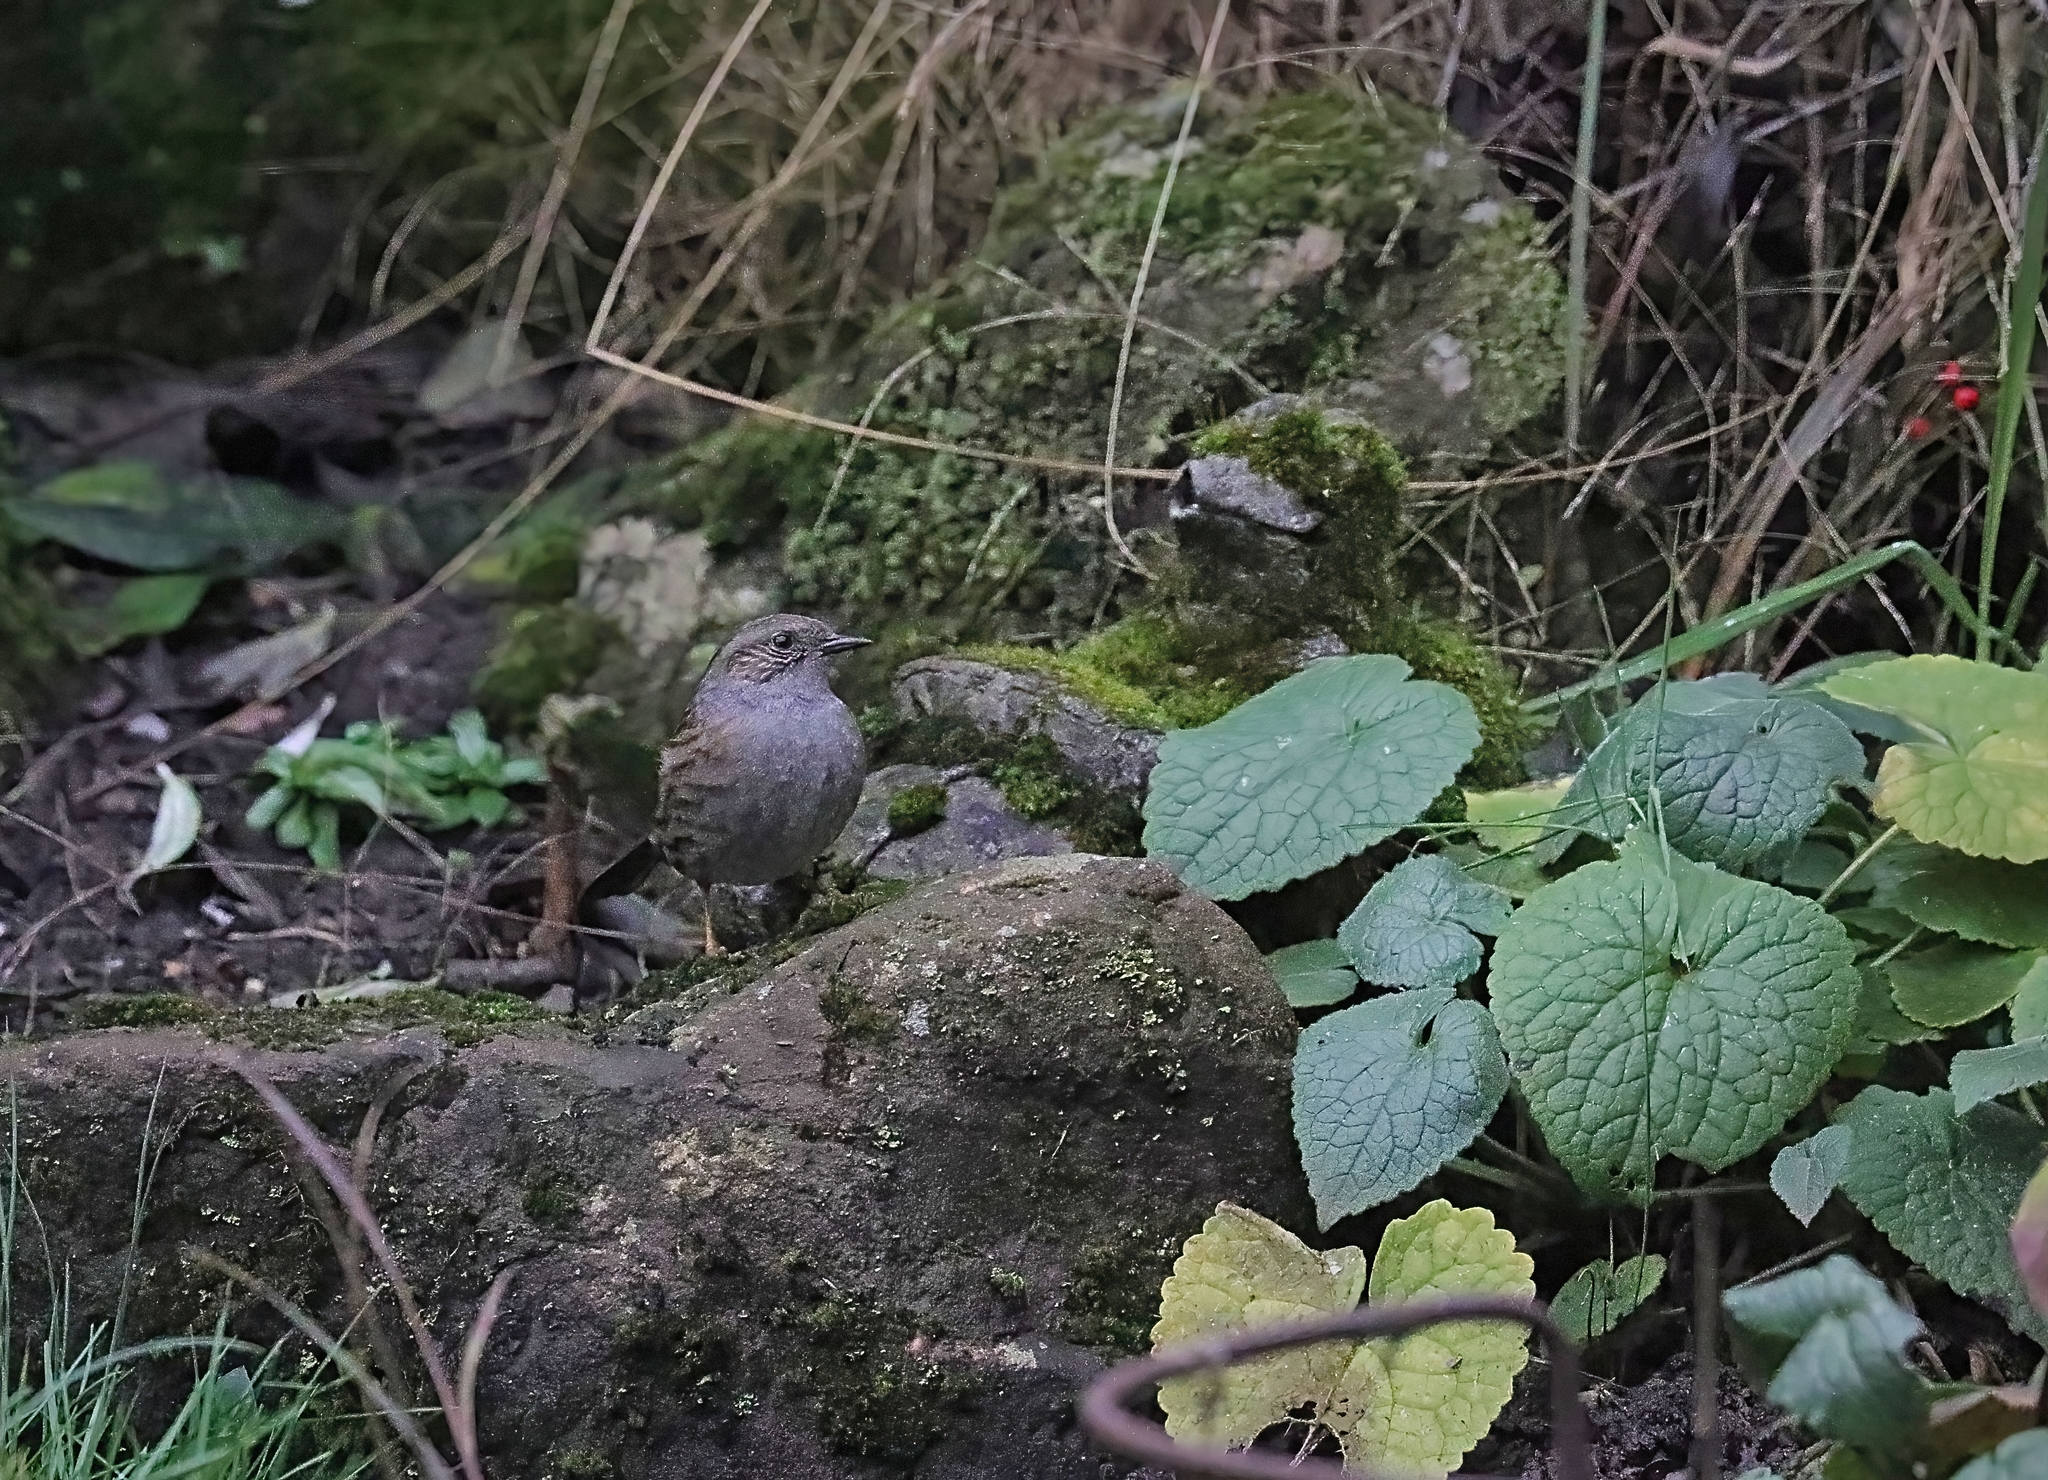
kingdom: Animalia
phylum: Chordata
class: Aves
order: Passeriformes
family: Prunellidae
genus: Prunella
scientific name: Prunella modularis
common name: Dunnock
